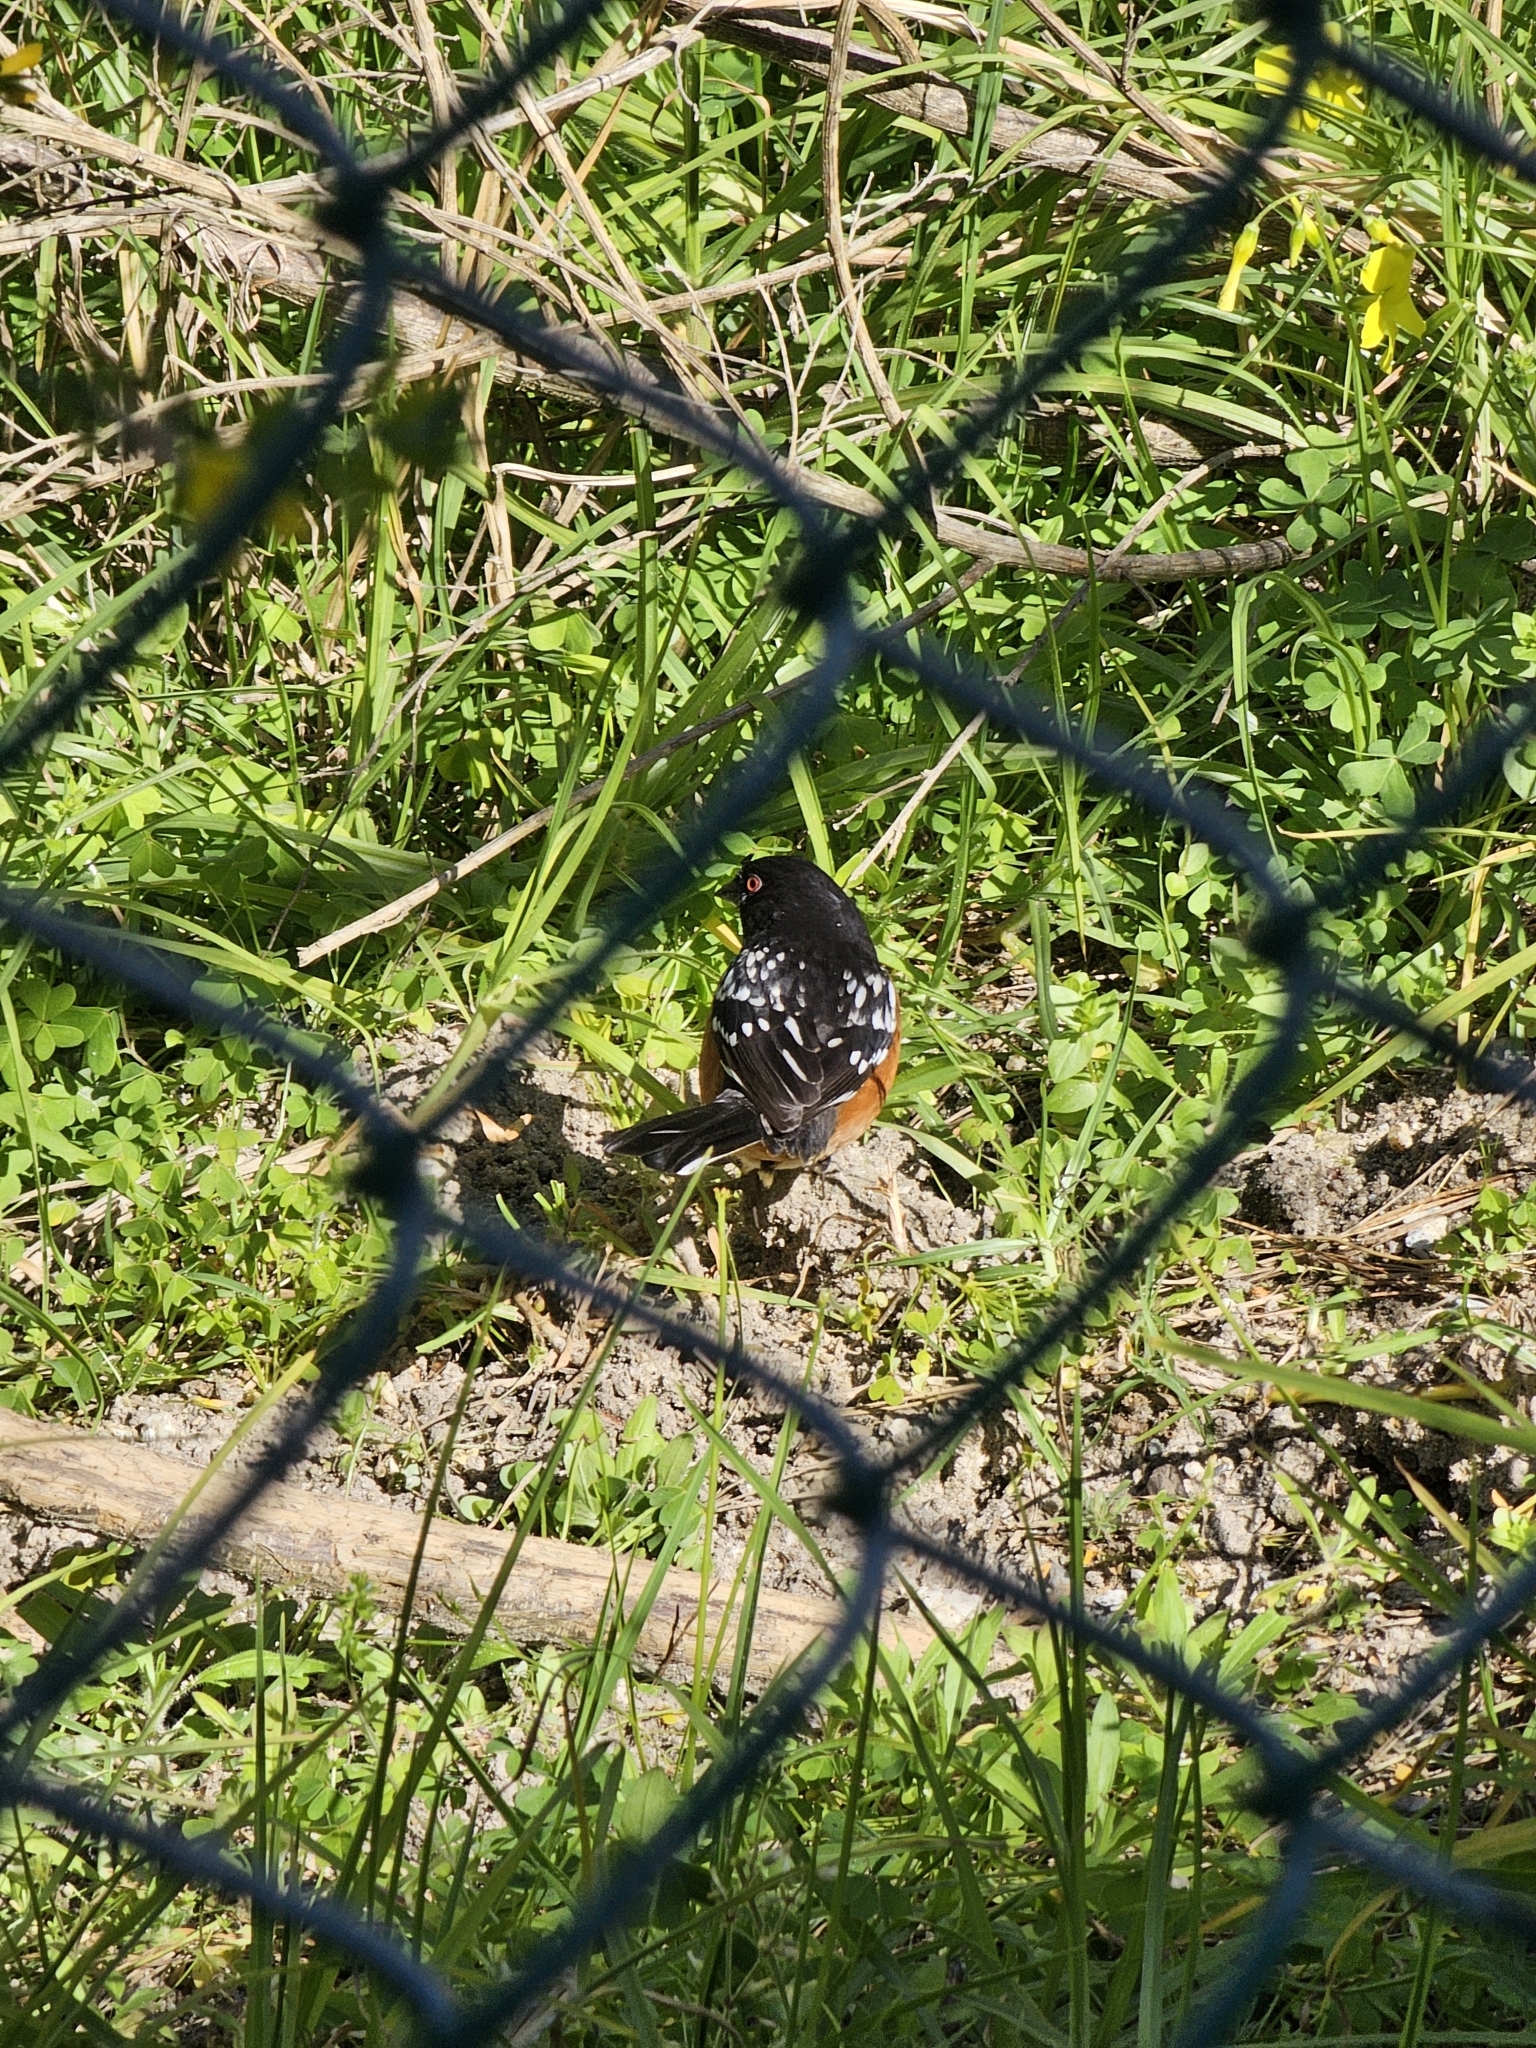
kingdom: Animalia
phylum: Chordata
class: Aves
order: Passeriformes
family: Passerellidae
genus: Pipilo
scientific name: Pipilo maculatus
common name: Spotted towhee
